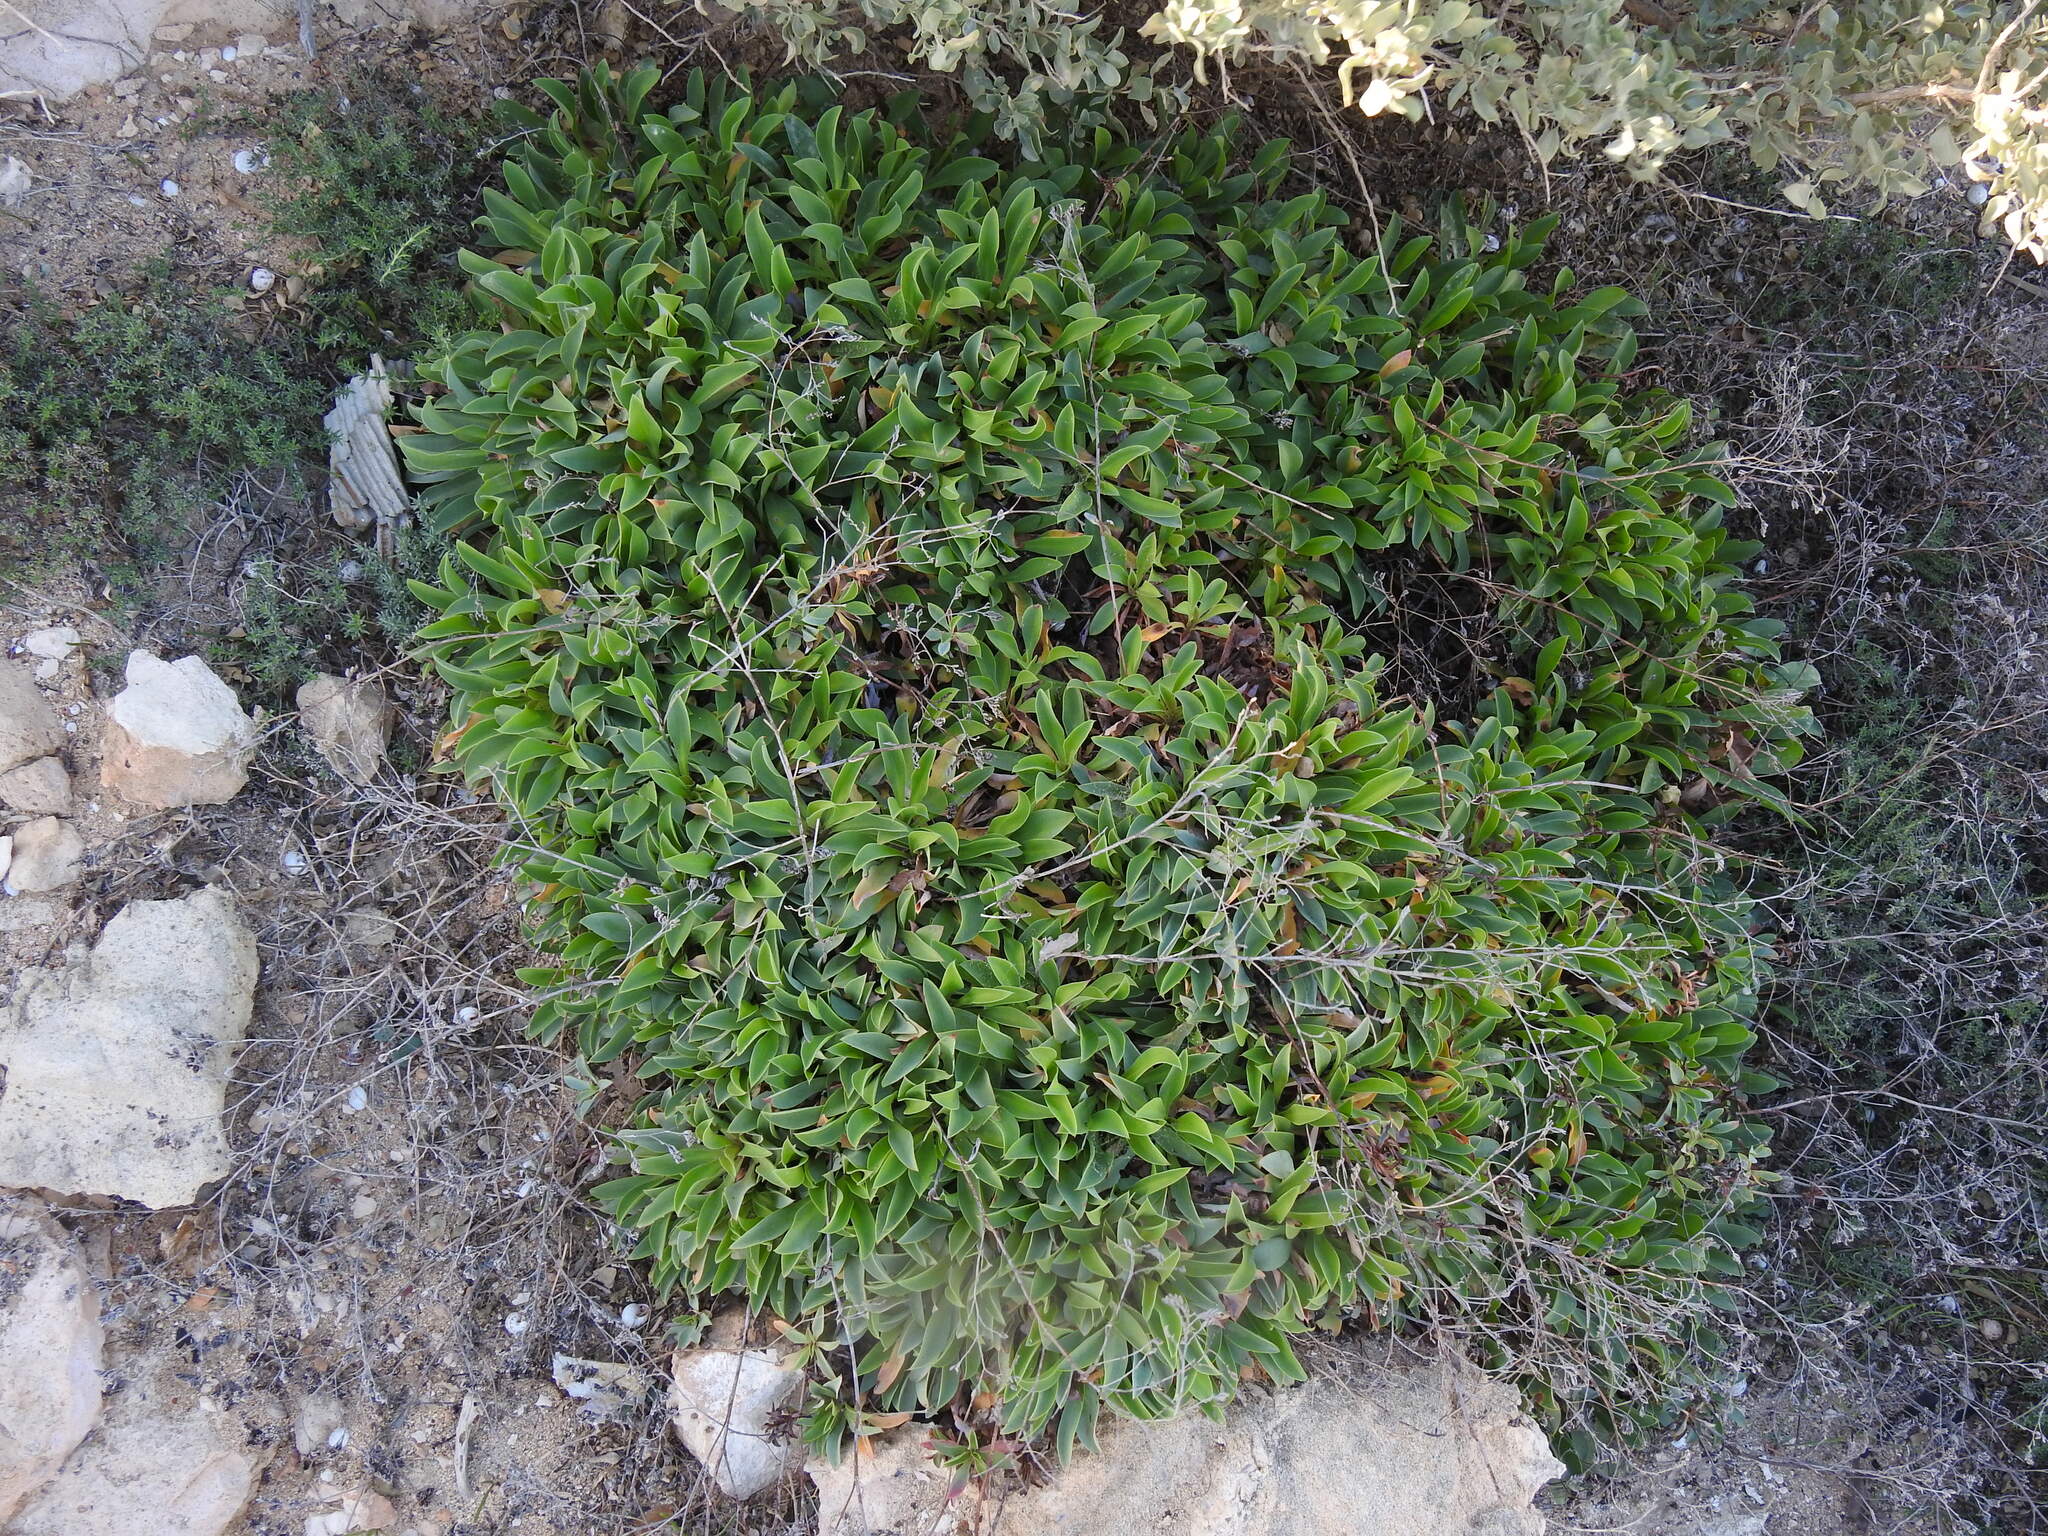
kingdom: Plantae
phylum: Tracheophyta
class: Magnoliopsida
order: Caryophyllales
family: Plumbaginaceae
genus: Limonium
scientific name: Limonium lowei
